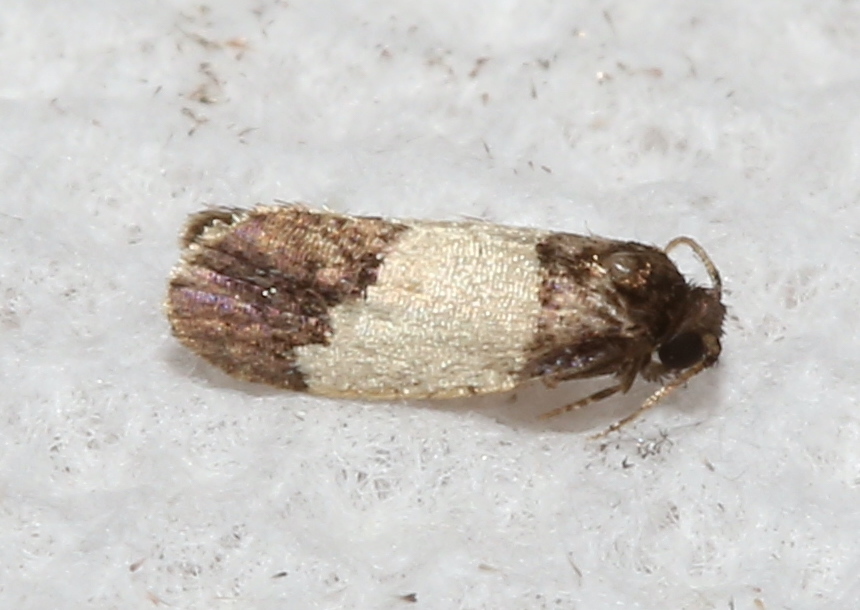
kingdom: Animalia
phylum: Arthropoda
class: Insecta
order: Lepidoptera
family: Psychidae
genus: Kearfottia
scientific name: Kearfottia albifasciella
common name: White-patched kearfottia
